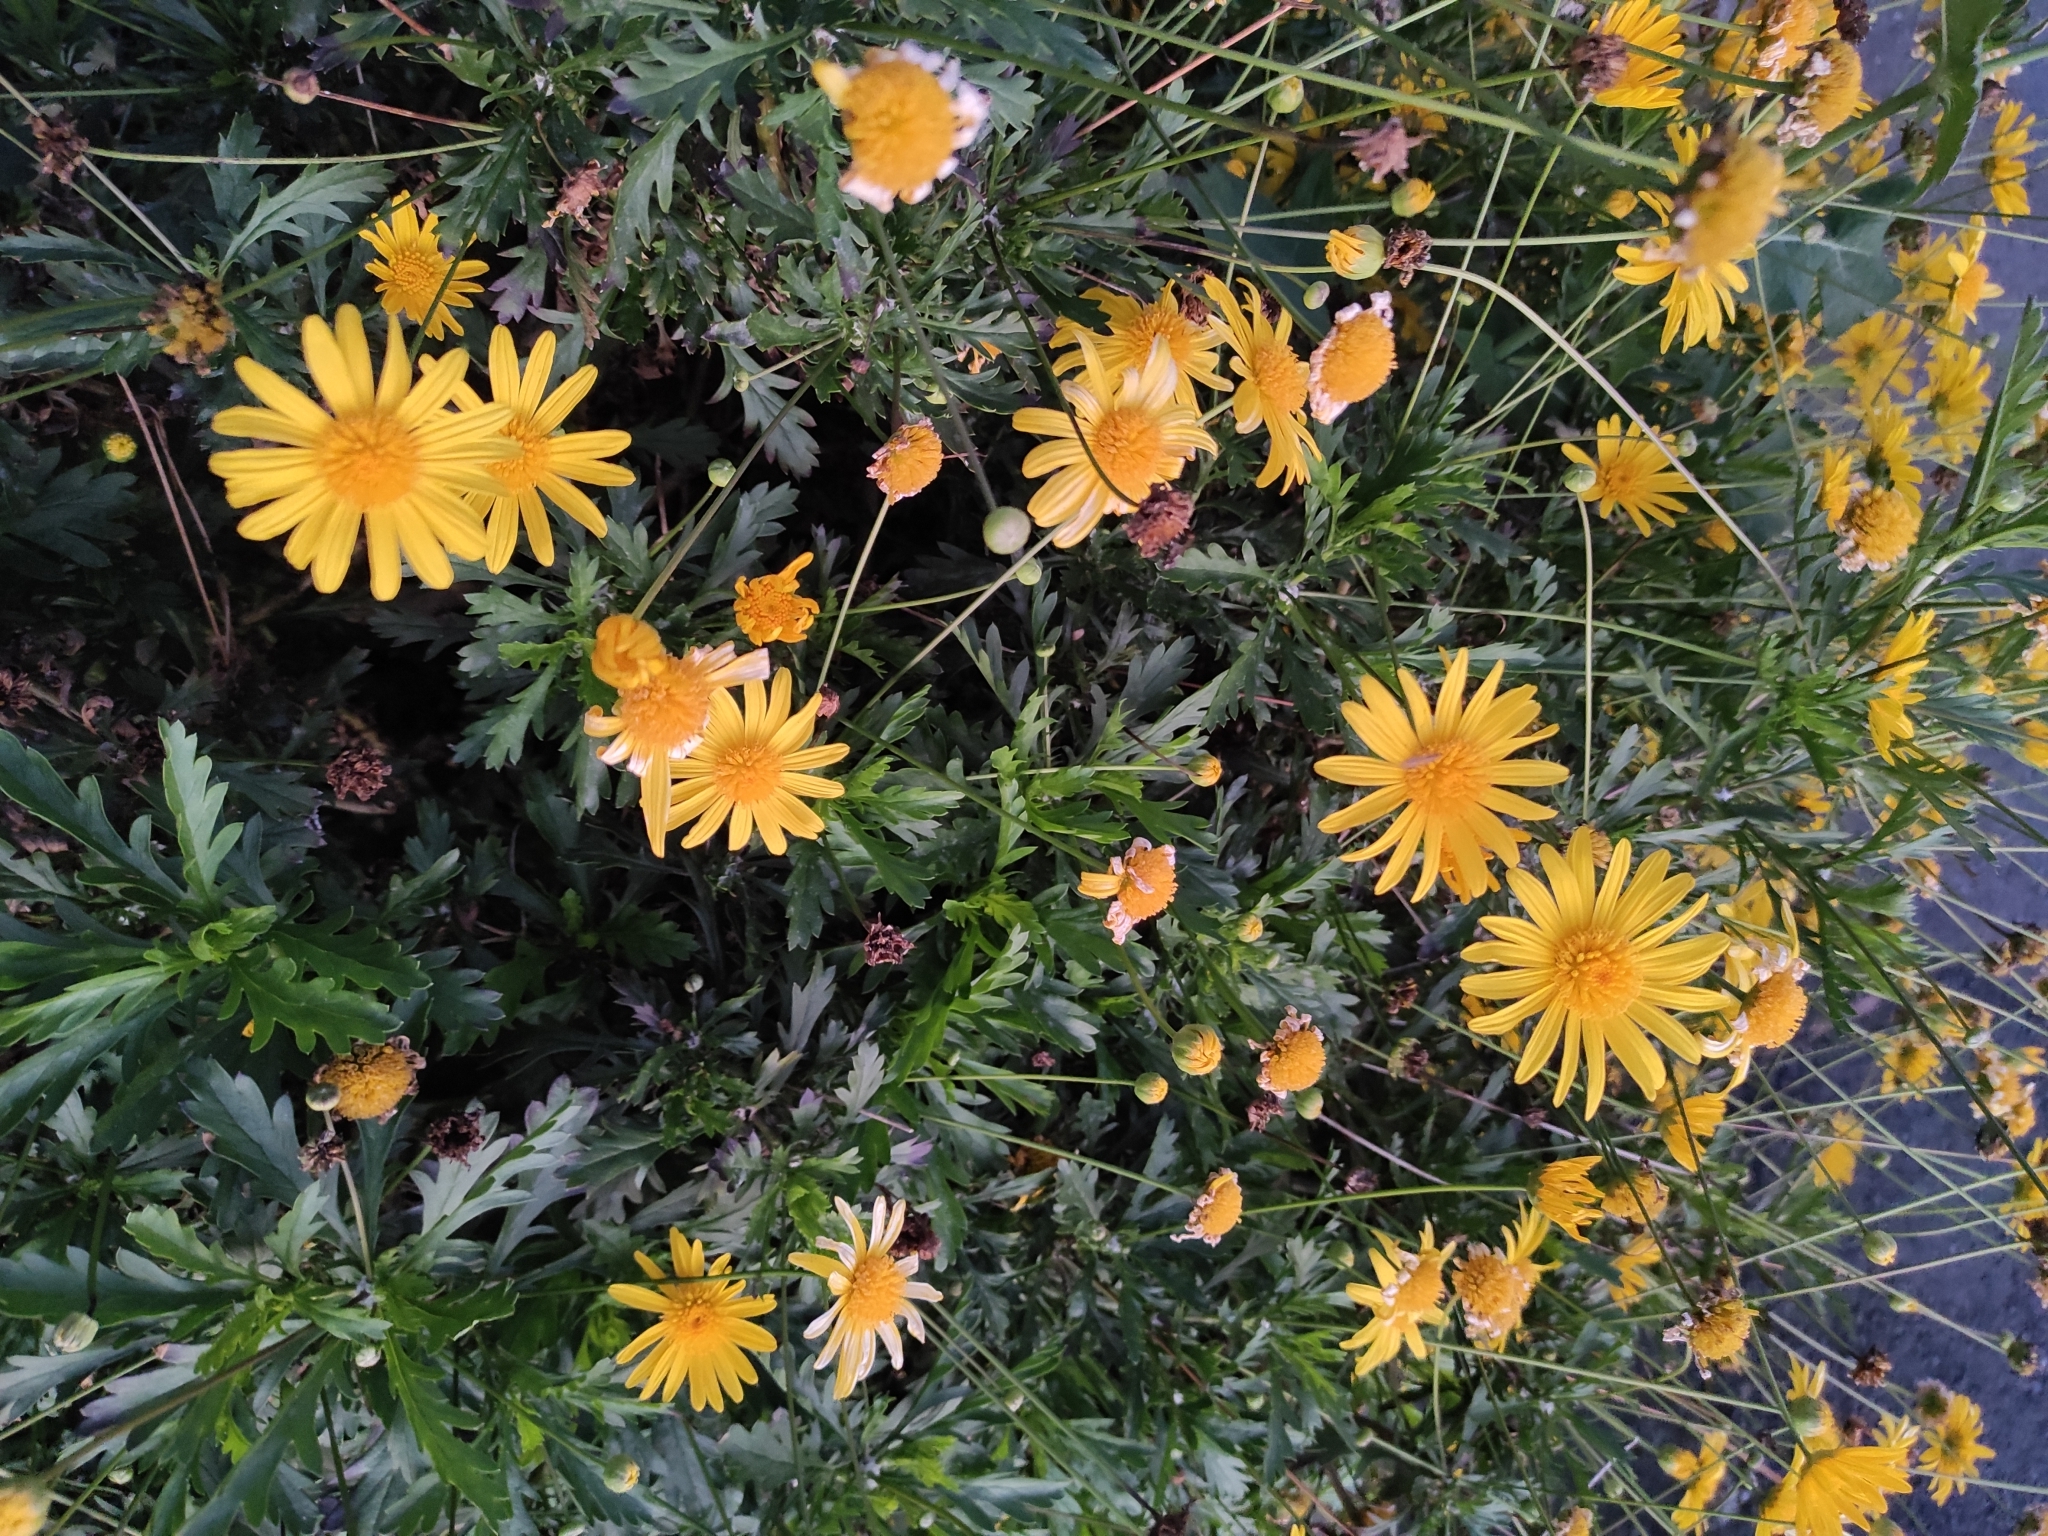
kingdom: Plantae
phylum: Tracheophyta
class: Magnoliopsida
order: Asterales
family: Asteraceae
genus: Euryops
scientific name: Euryops chrysanthemoides
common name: Bull's eye
